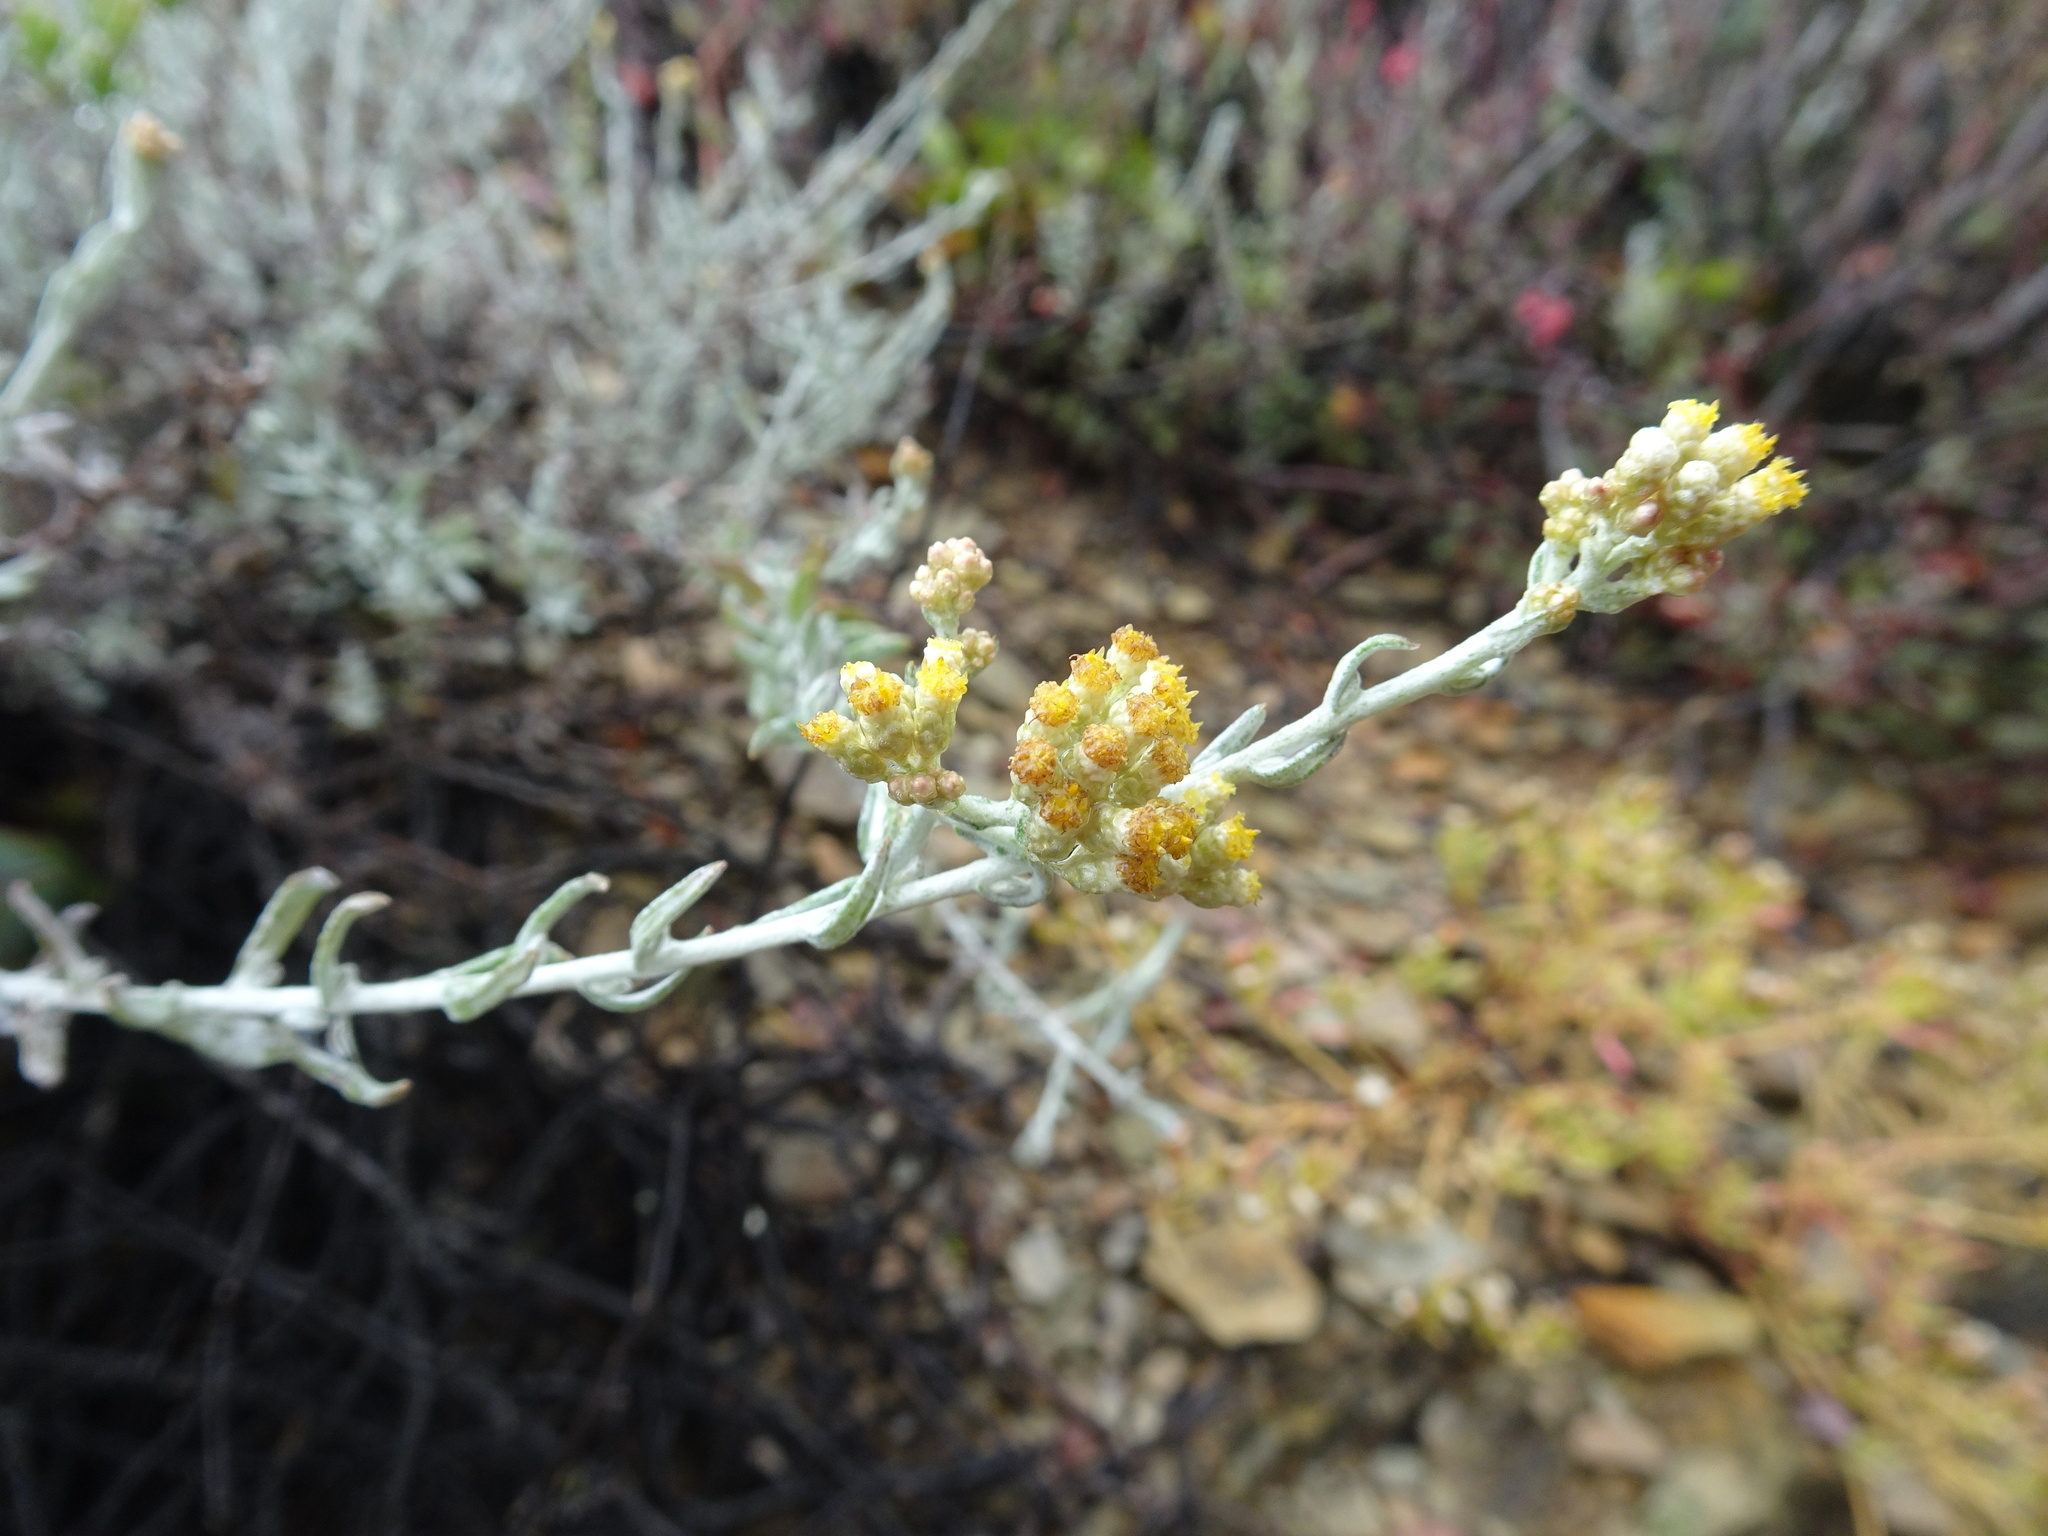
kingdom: Plantae
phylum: Tracheophyta
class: Magnoliopsida
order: Asterales
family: Asteraceae
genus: Helichrysum
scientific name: Helichrysum rosum
